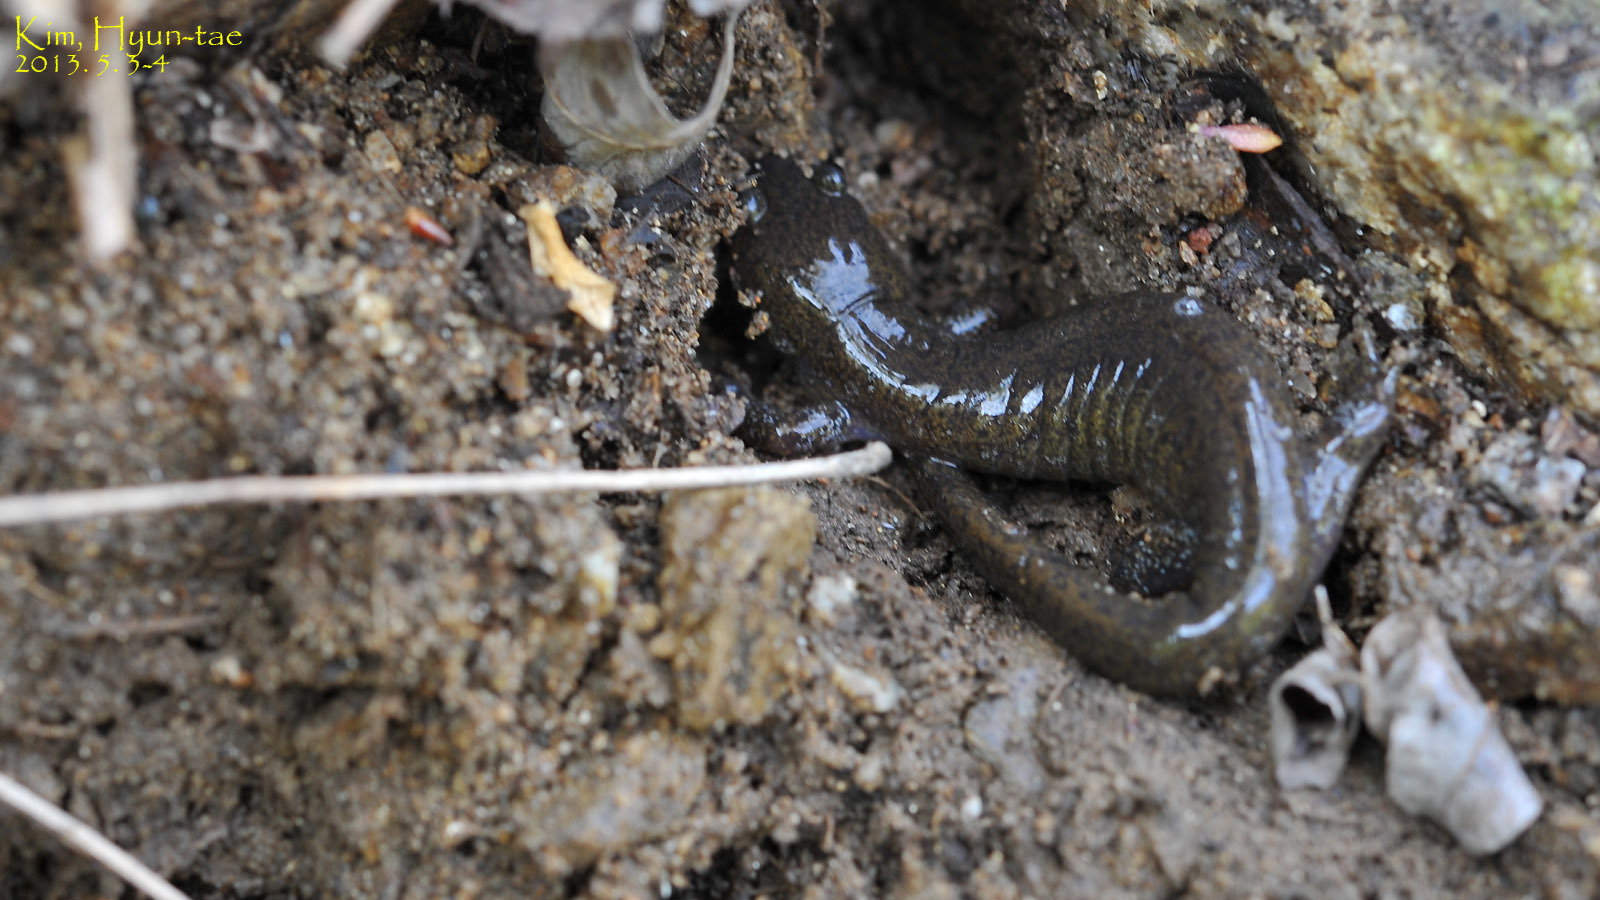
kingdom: Animalia
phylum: Chordata
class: Amphibia
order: Caudata
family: Hynobiidae
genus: Hynobius
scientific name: Hynobius leechii
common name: Gensan salamander
